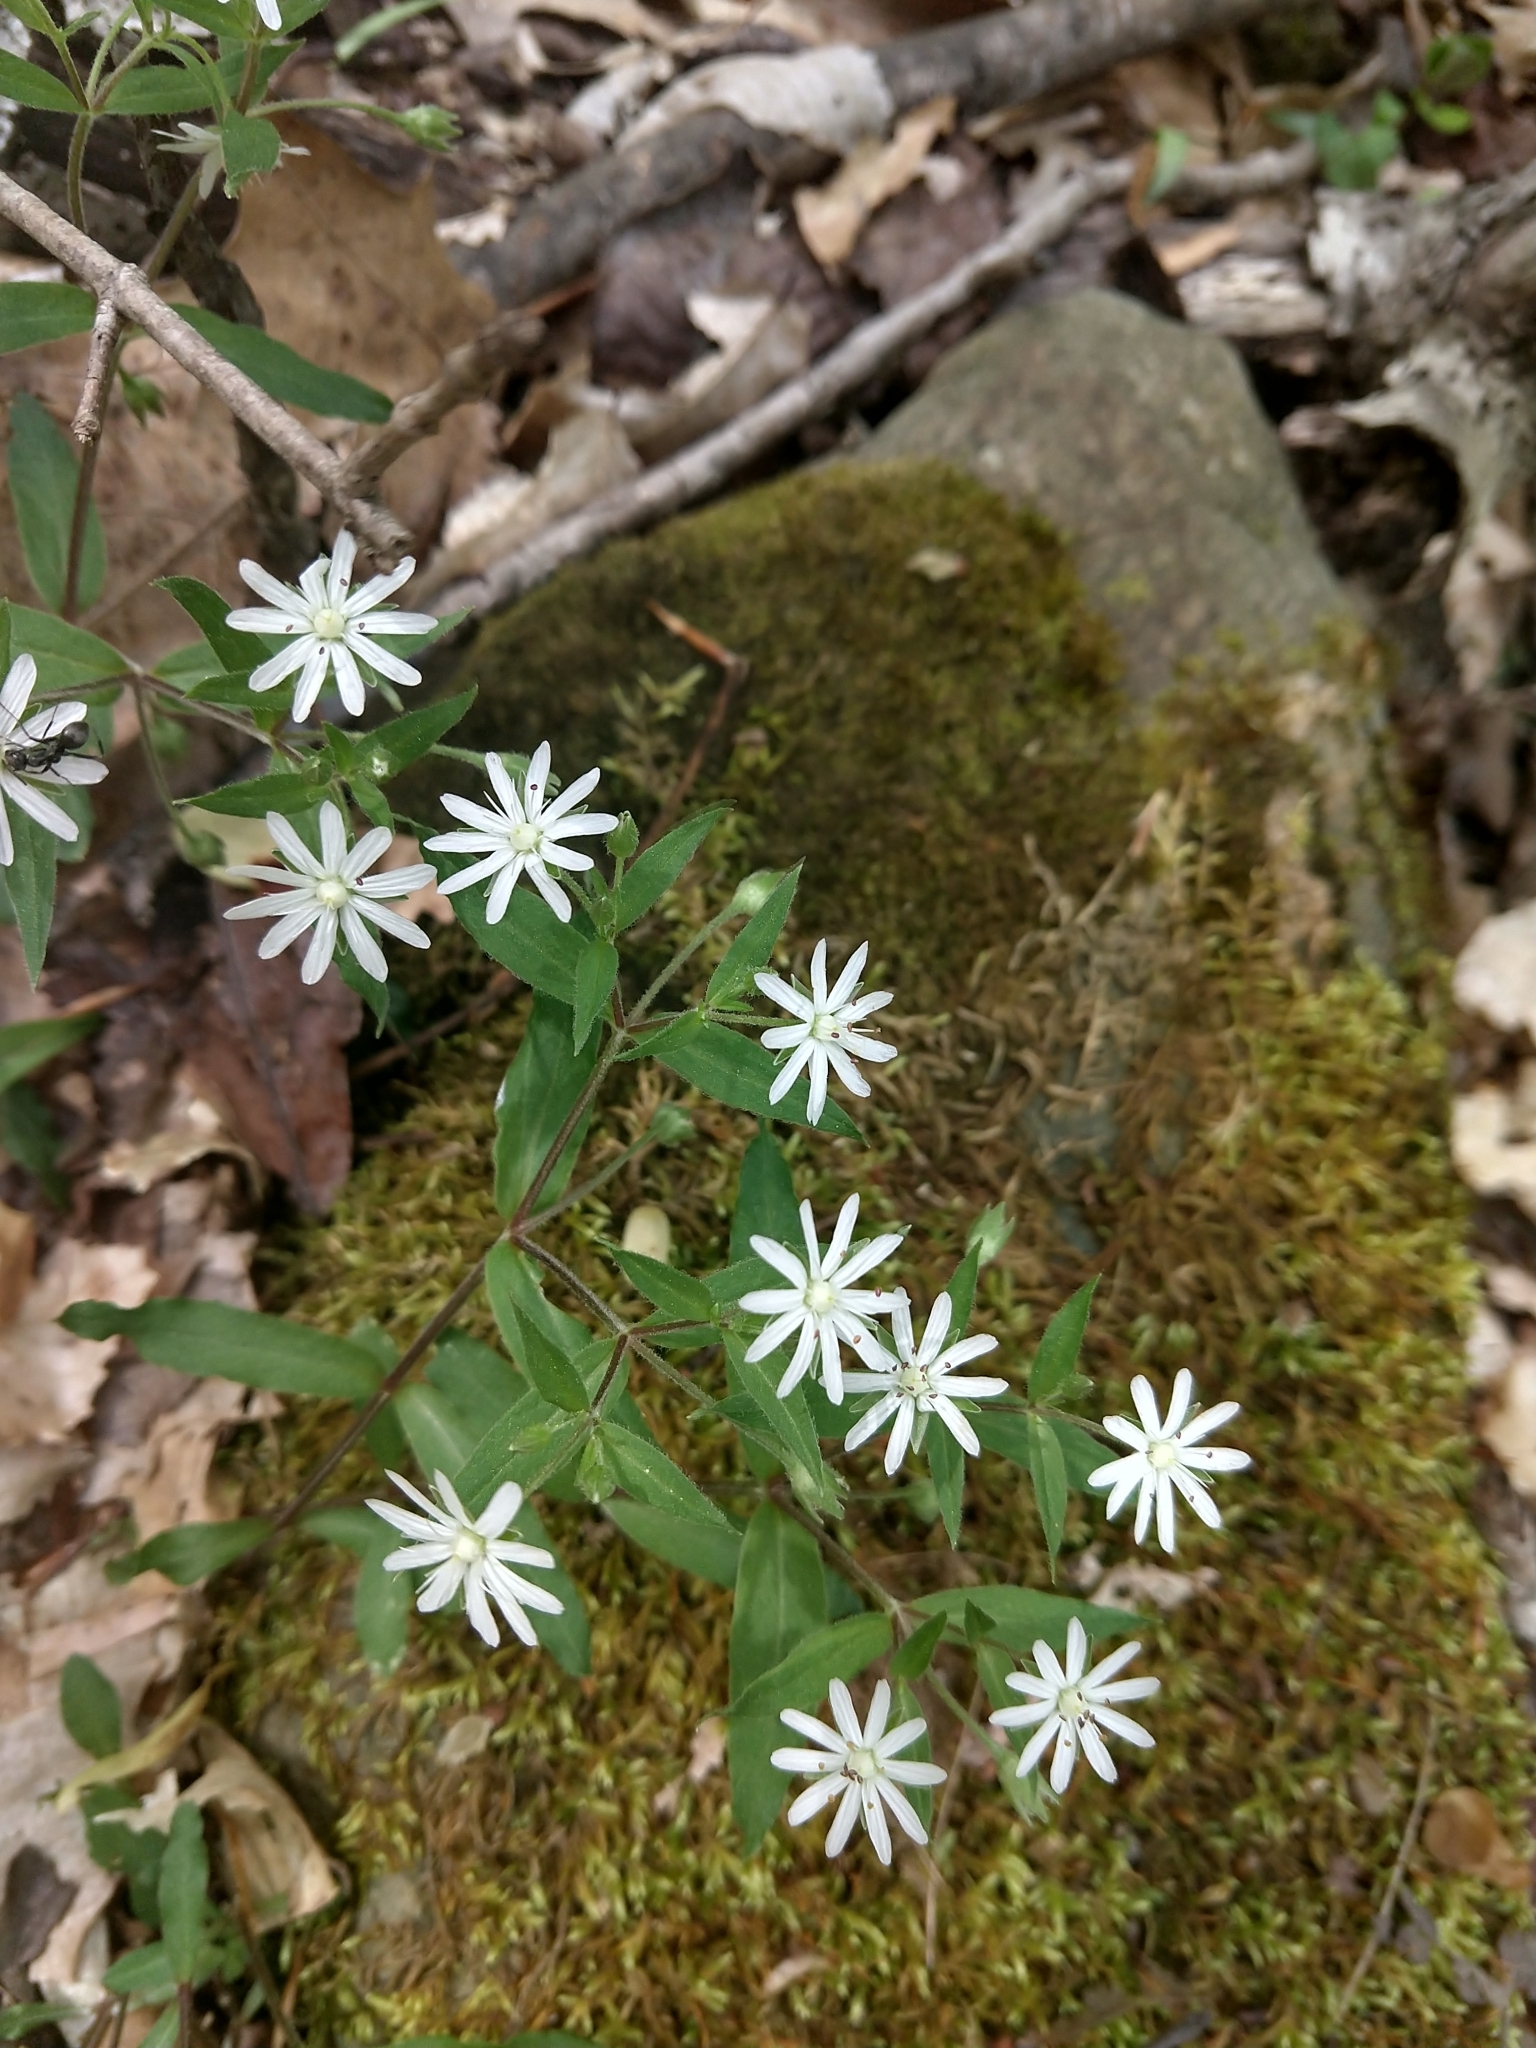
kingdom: Plantae
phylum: Tracheophyta
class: Magnoliopsida
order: Caryophyllales
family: Caryophyllaceae
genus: Stellaria
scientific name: Stellaria pubera
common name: Star chickweed
